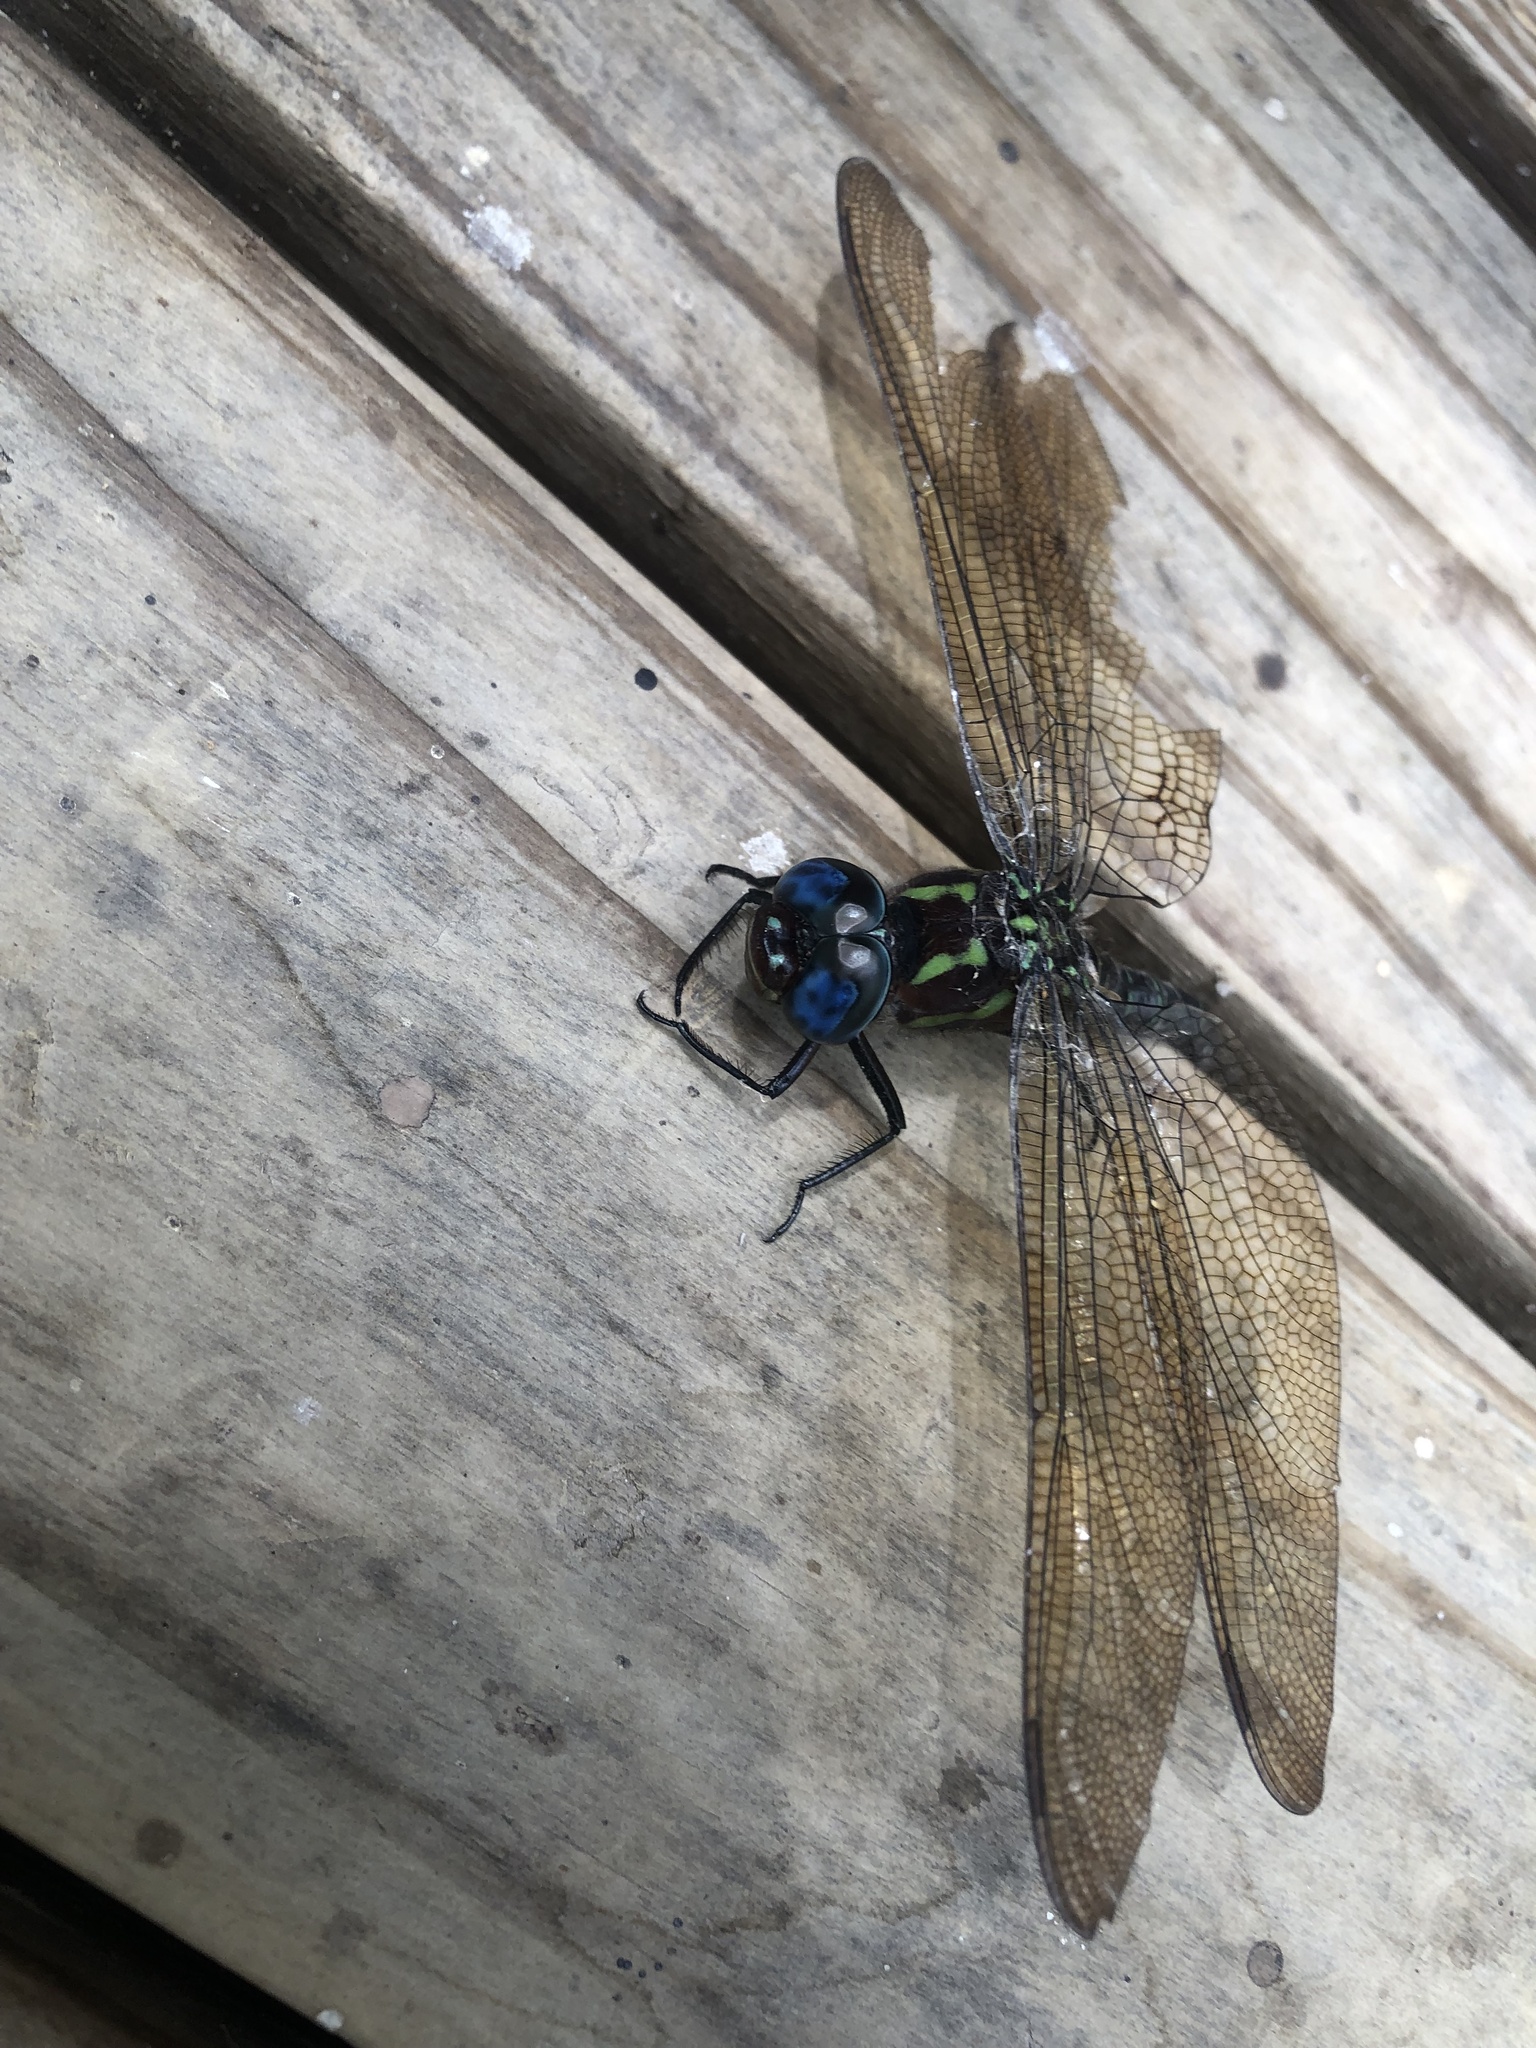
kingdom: Animalia
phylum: Arthropoda
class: Insecta
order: Odonata
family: Aeshnidae
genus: Epiaeschna
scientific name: Epiaeschna heros
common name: Swamp darner
